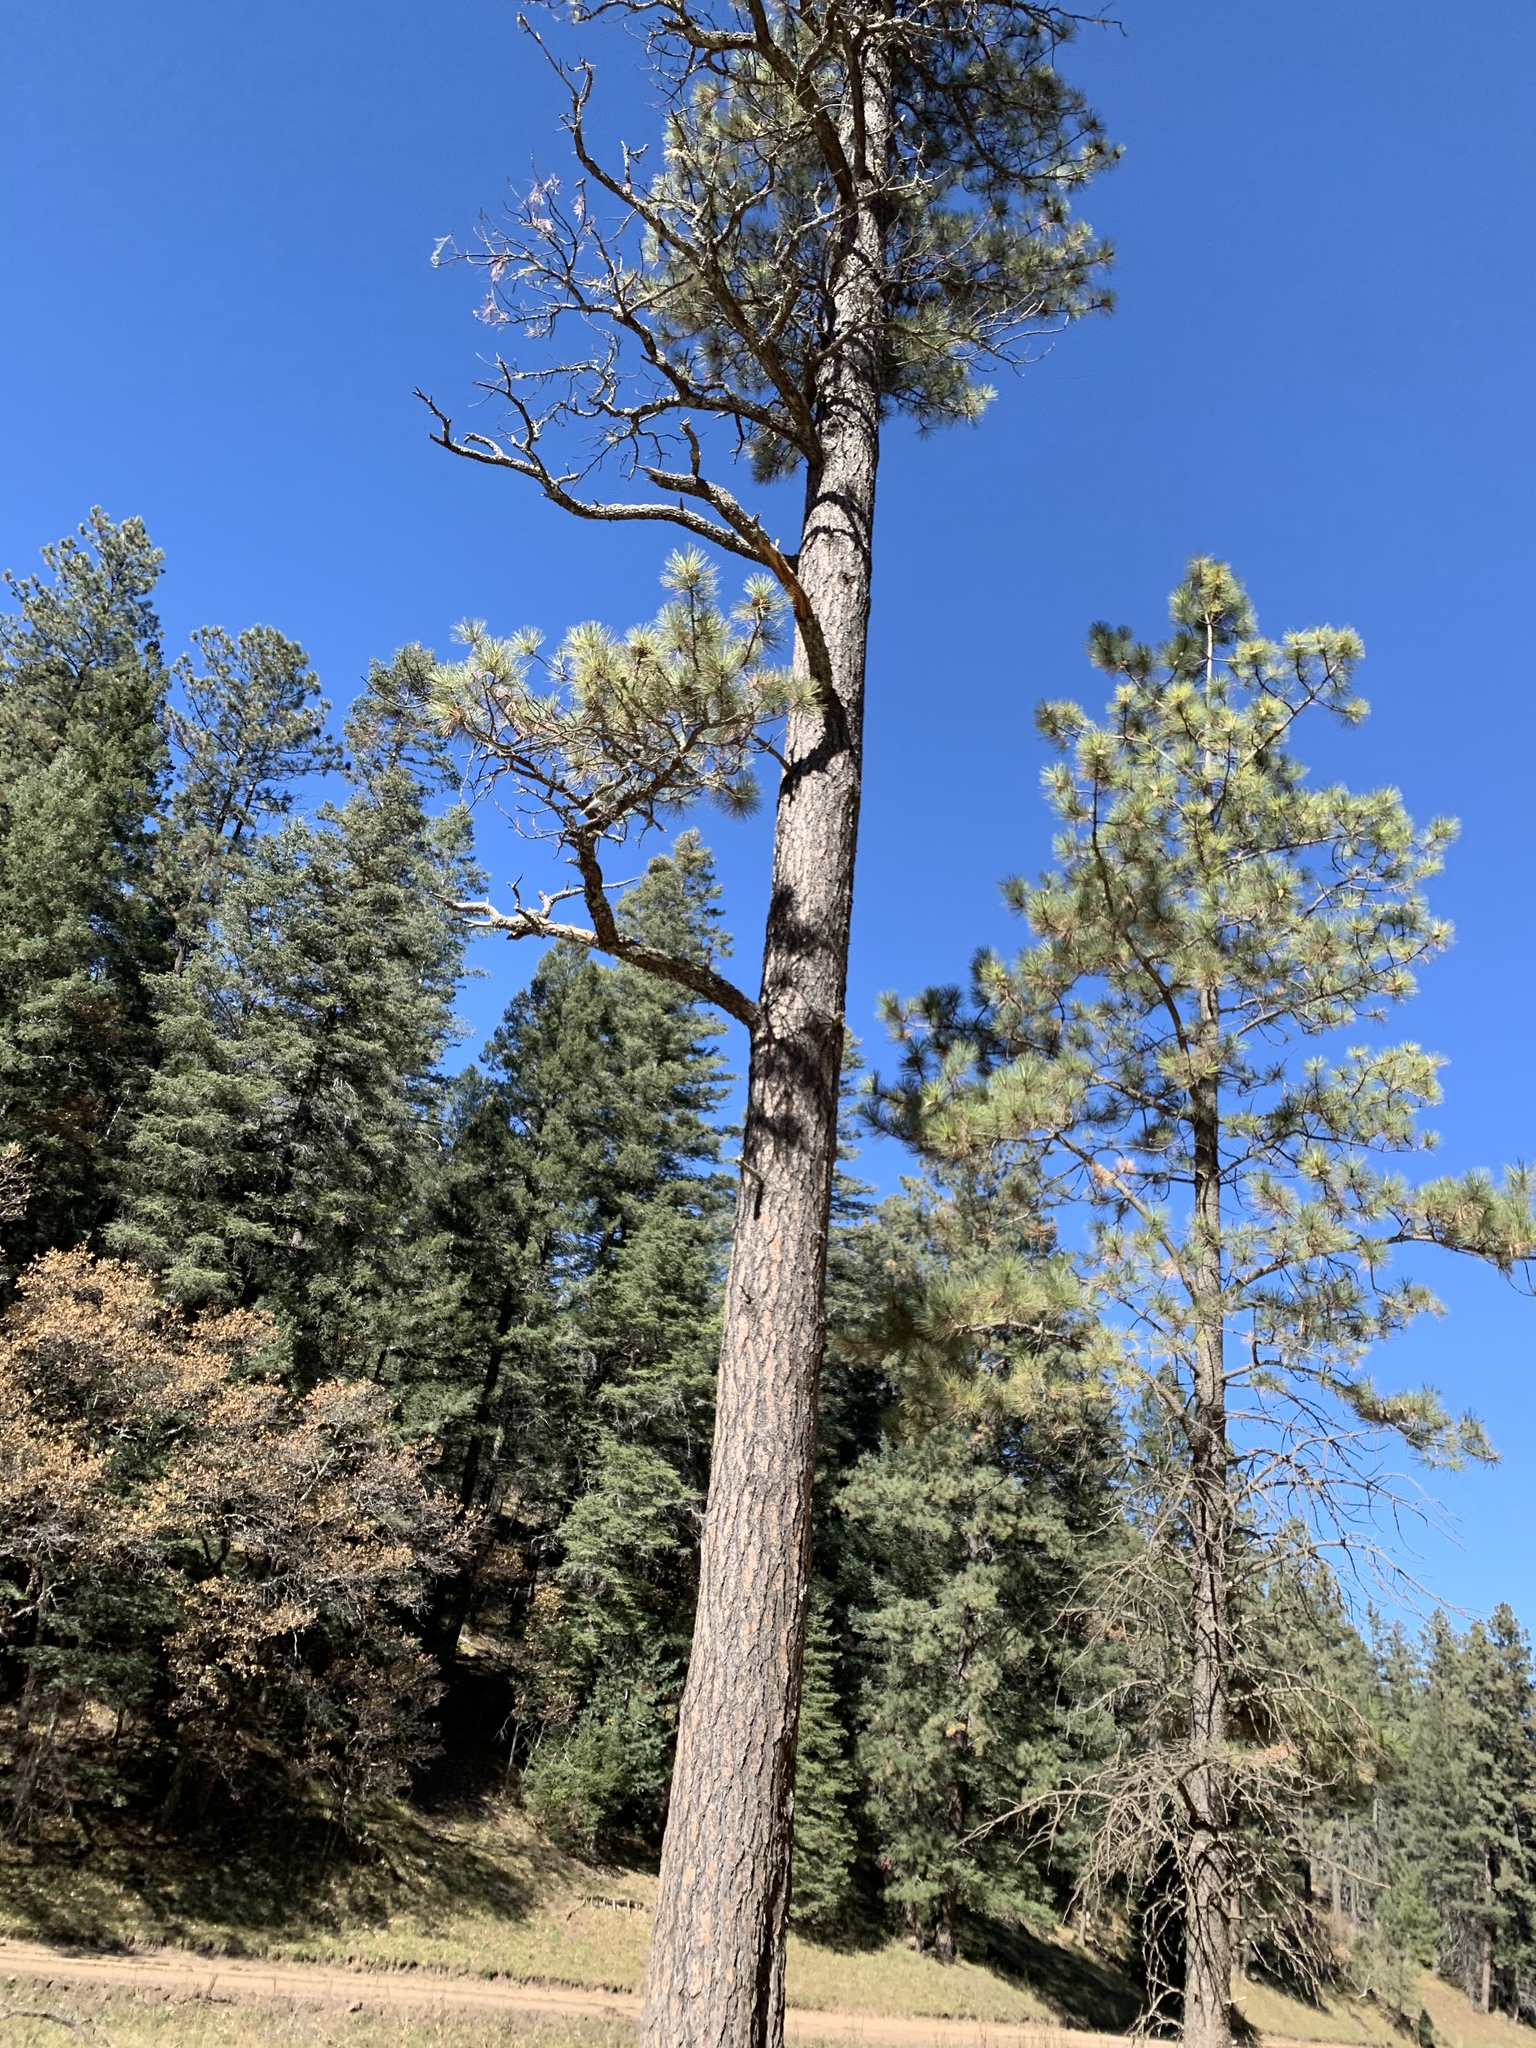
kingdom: Plantae
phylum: Tracheophyta
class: Pinopsida
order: Pinales
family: Pinaceae
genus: Pinus
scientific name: Pinus ponderosa
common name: Western yellow-pine
